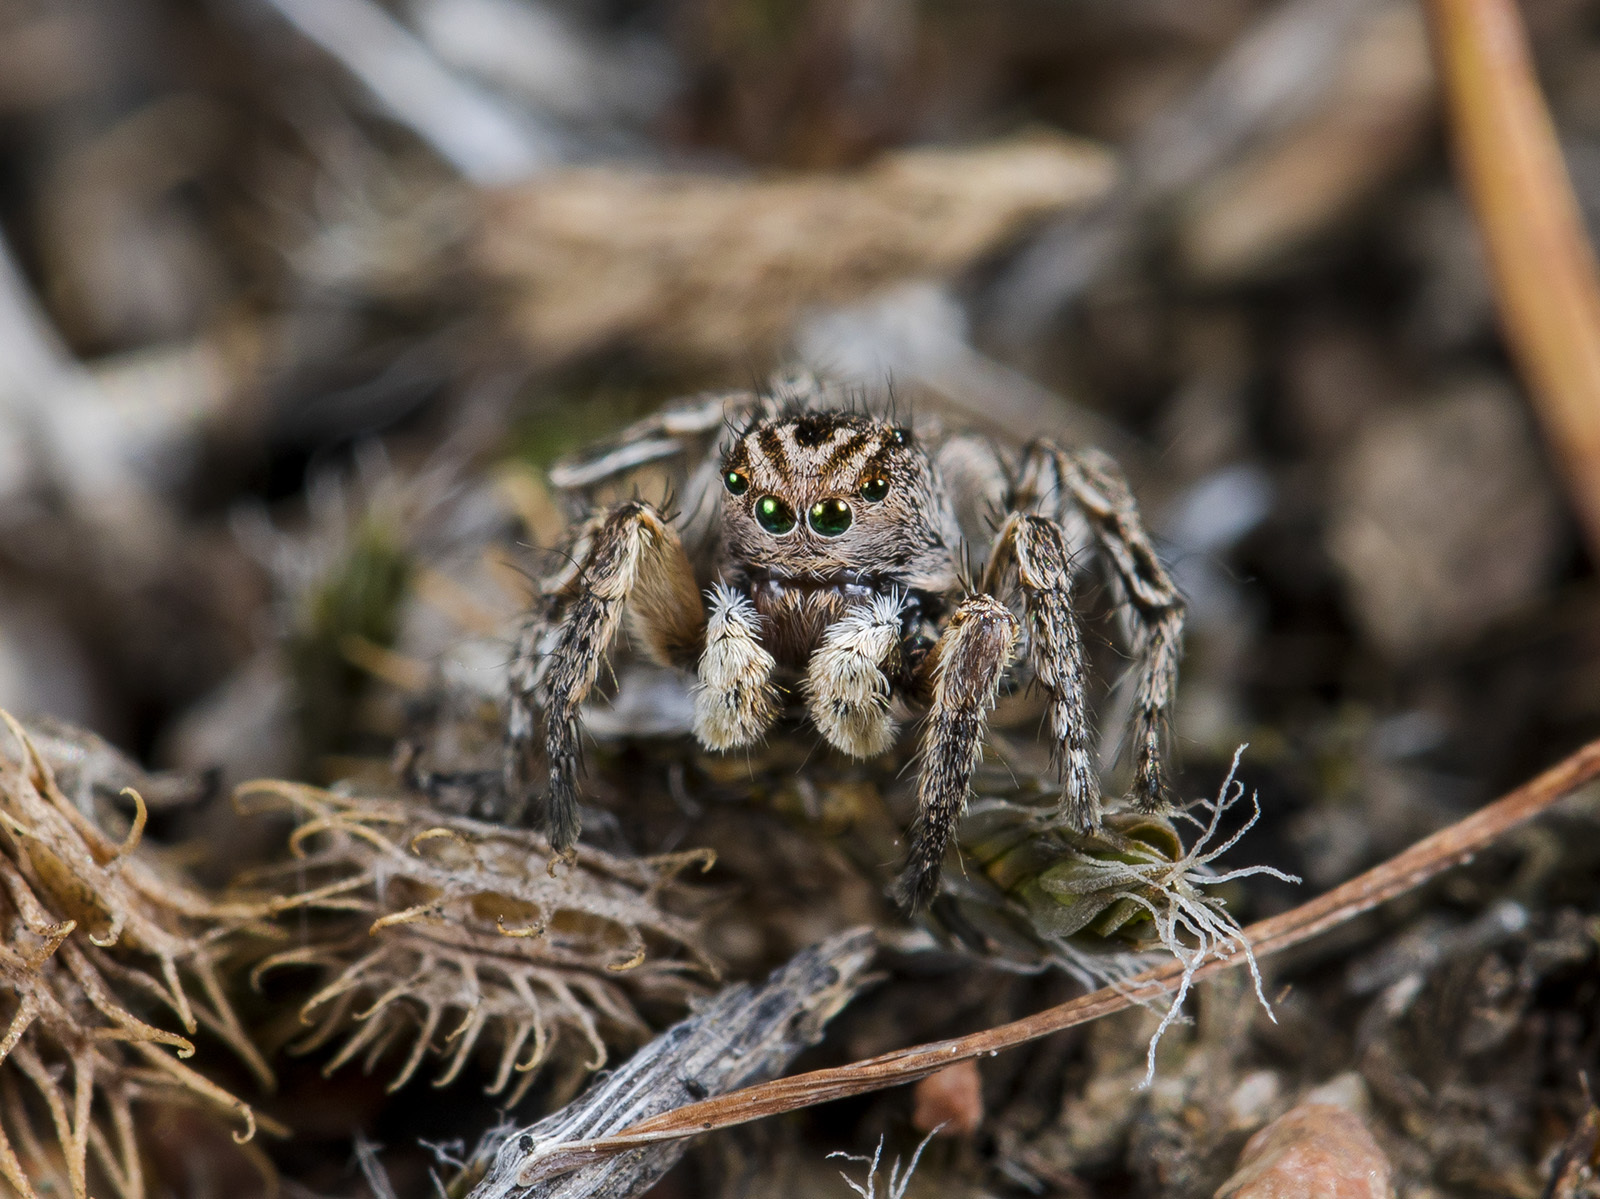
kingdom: Animalia
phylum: Arthropoda
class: Arachnida
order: Araneae
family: Salticidae
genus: Aelurillus
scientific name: Aelurillus v-insignitus
